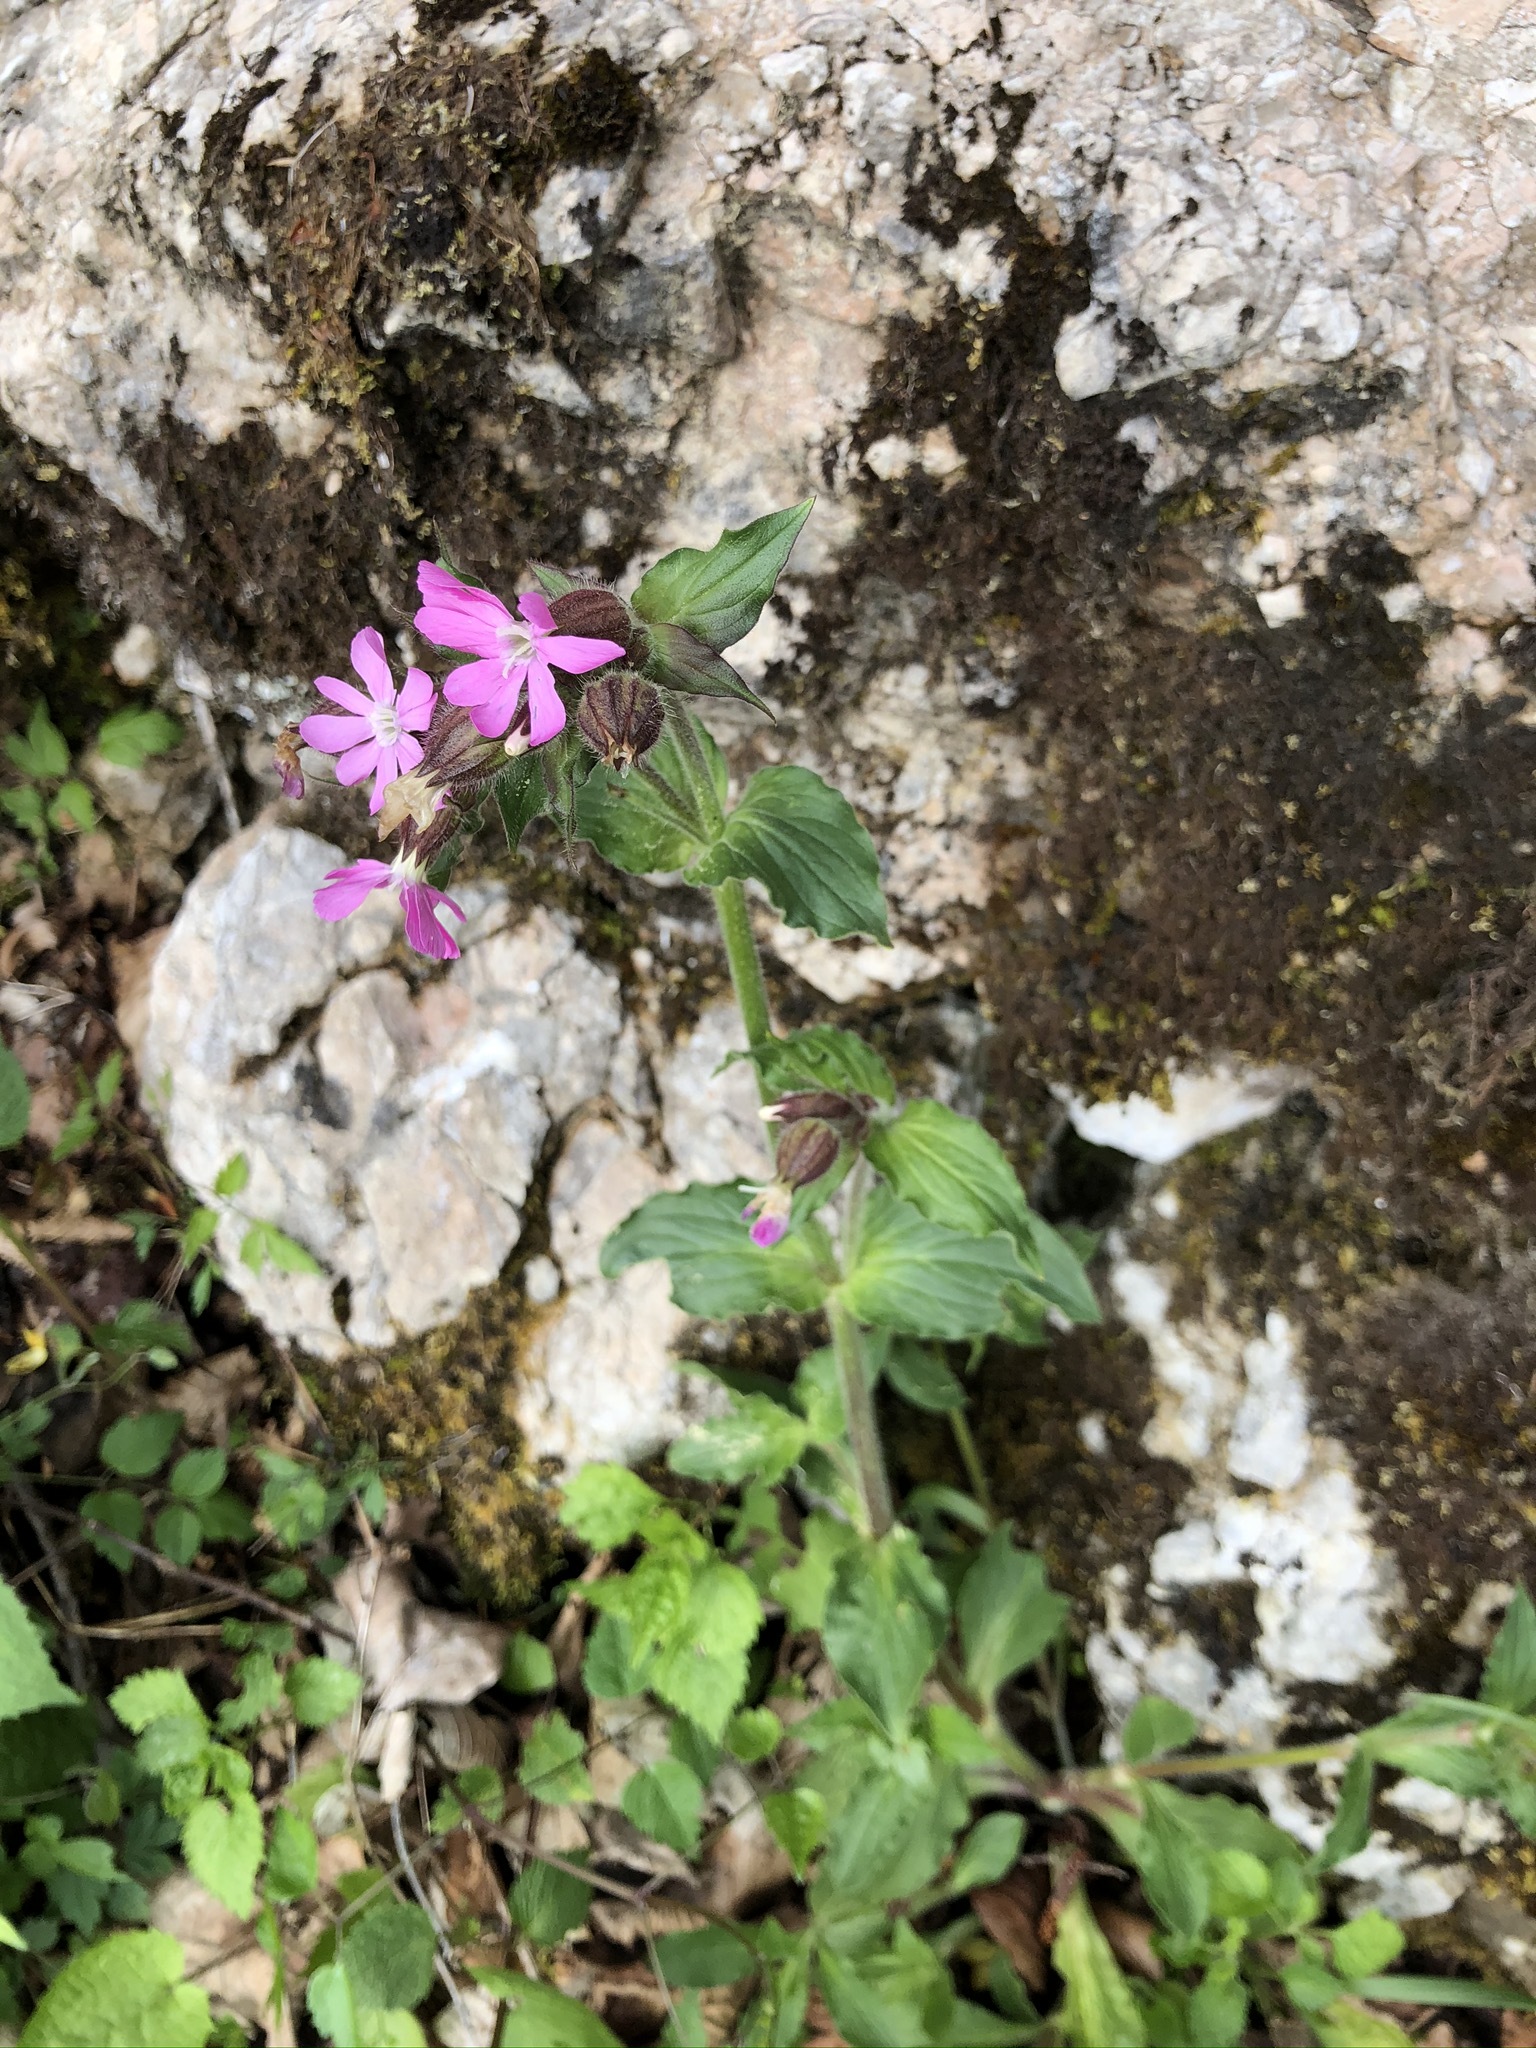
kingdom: Plantae
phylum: Tracheophyta
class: Magnoliopsida
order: Caryophyllales
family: Caryophyllaceae
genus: Silene
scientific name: Silene dioica
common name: Red campion
